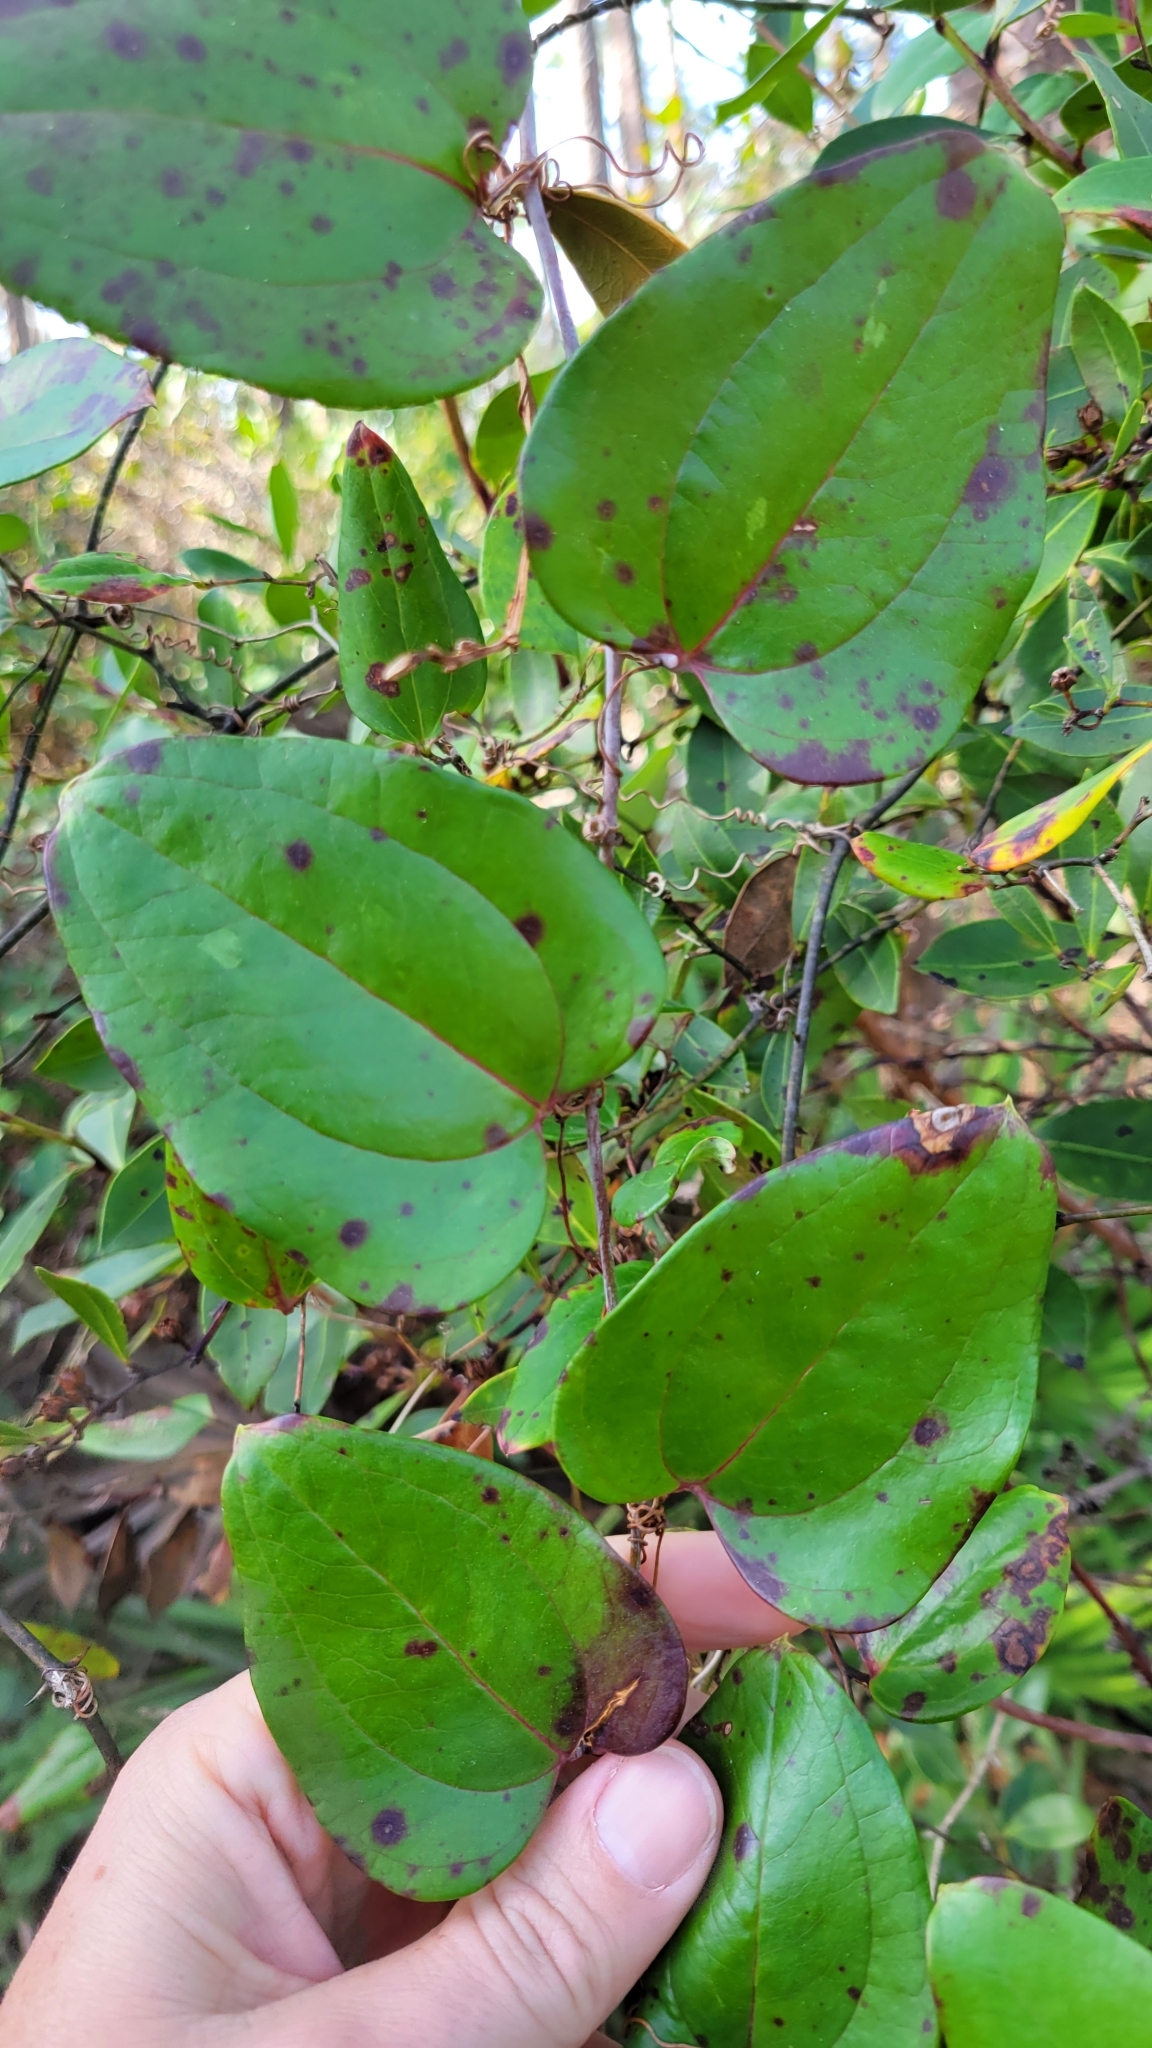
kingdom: Plantae
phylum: Tracheophyta
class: Liliopsida
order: Liliales
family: Smilacaceae
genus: Smilax
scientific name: Smilax glauca
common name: Cat greenbrier
